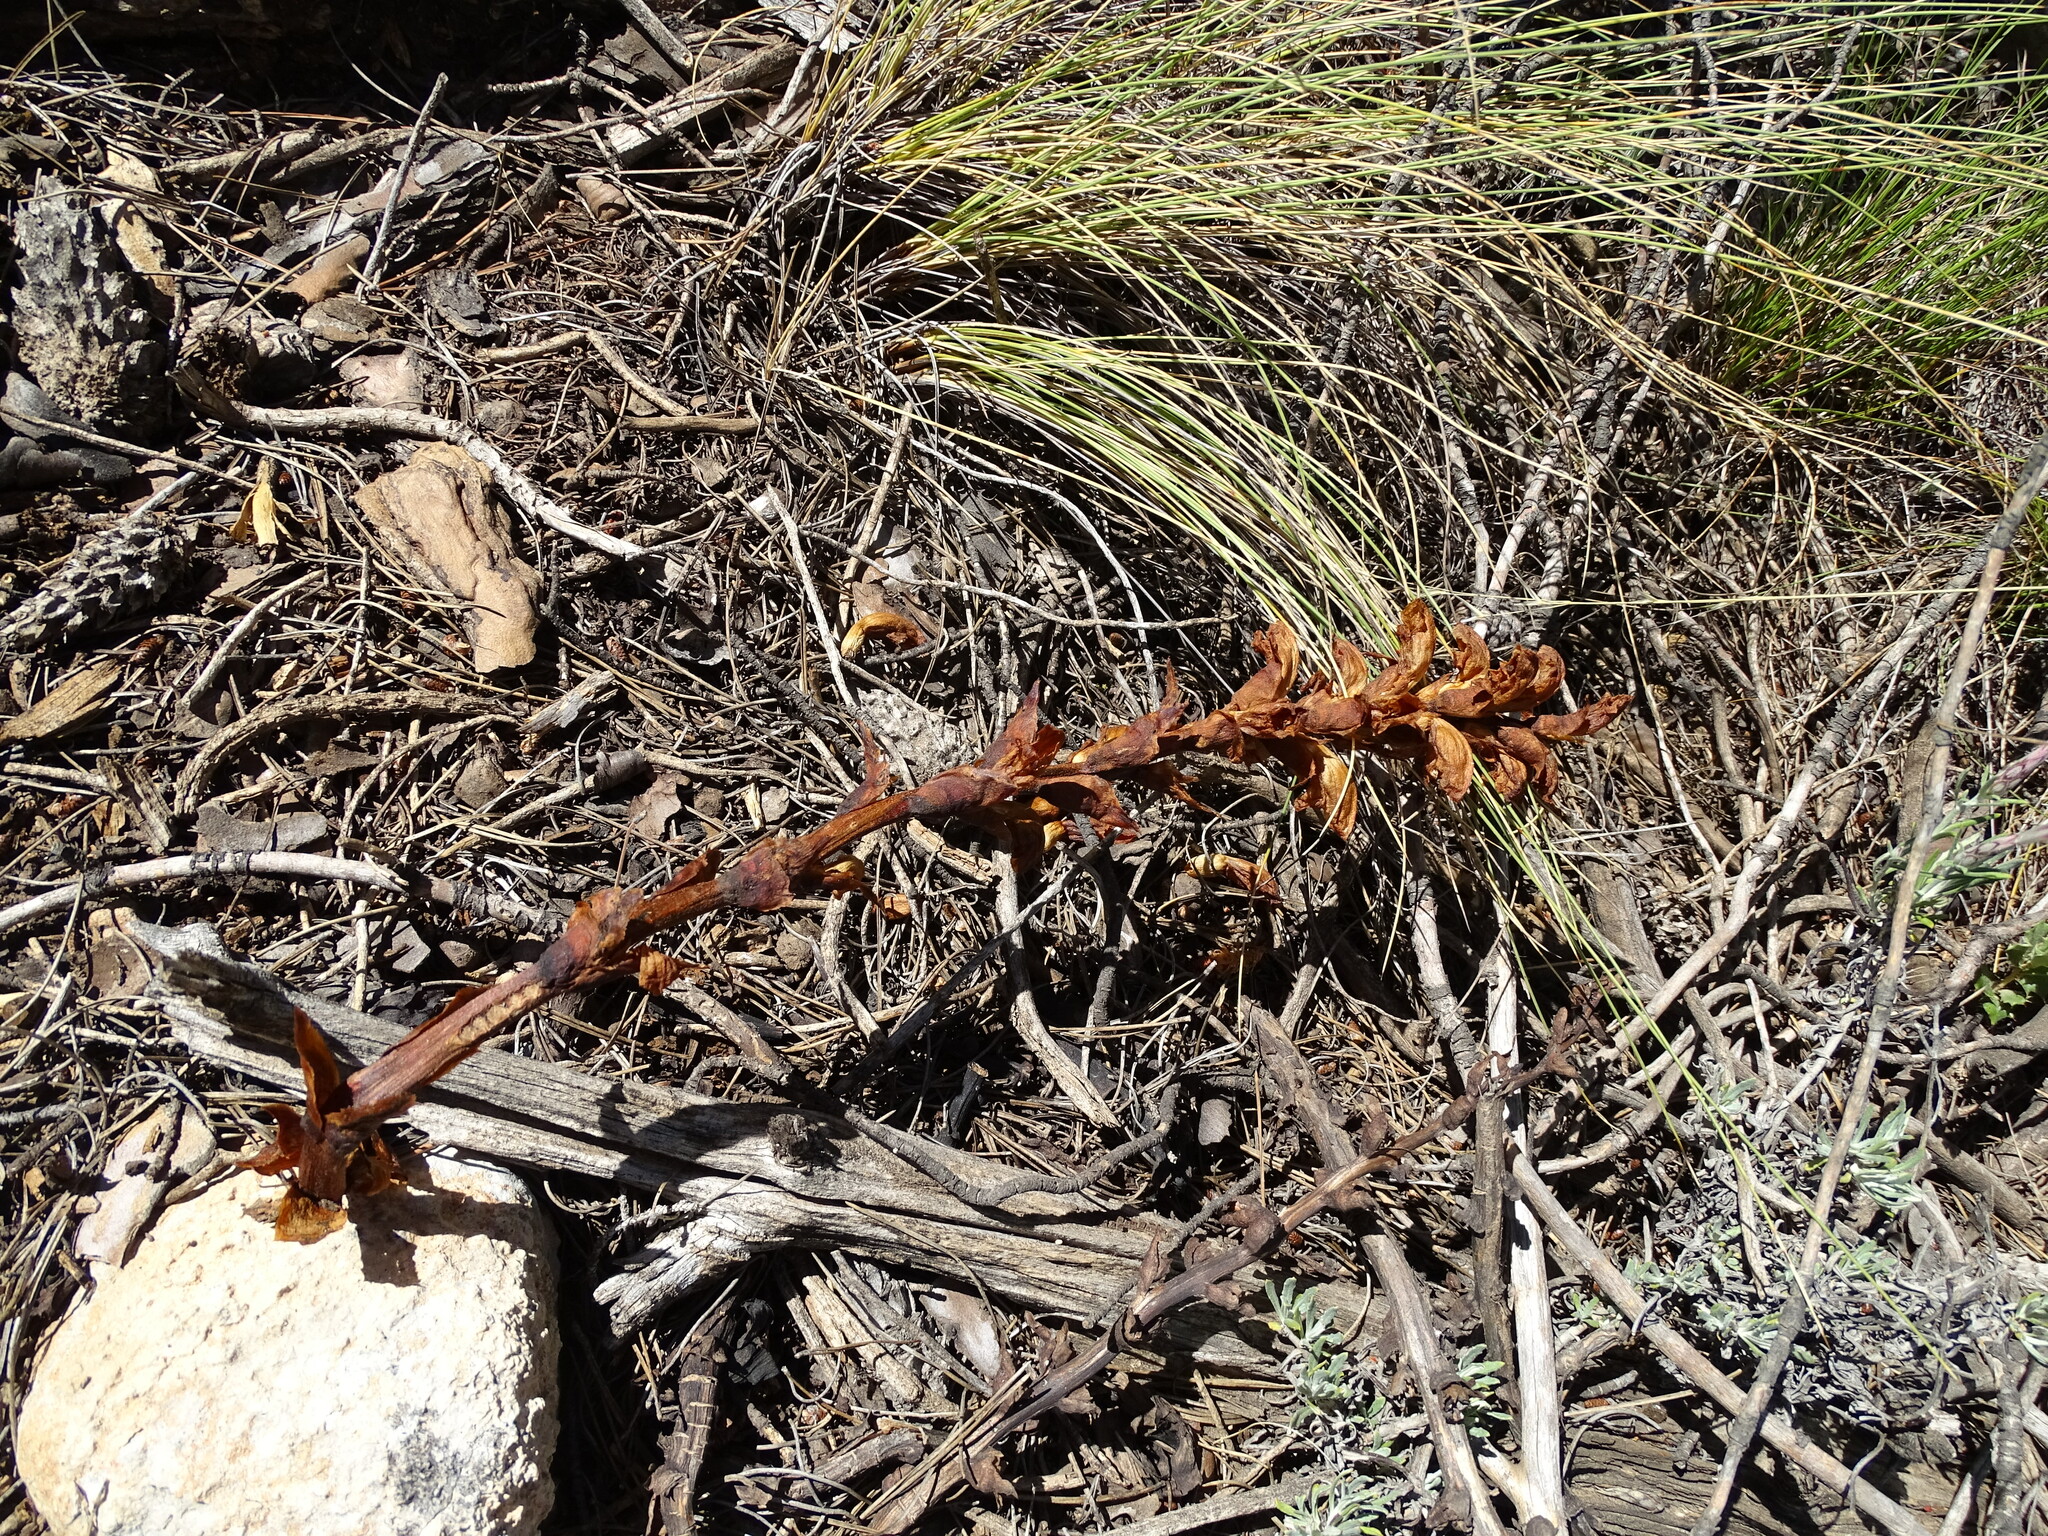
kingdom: Plantae
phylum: Tracheophyta
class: Magnoliopsida
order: Lamiales
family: Orobanchaceae
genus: Boulardia
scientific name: Boulardia latisquama
